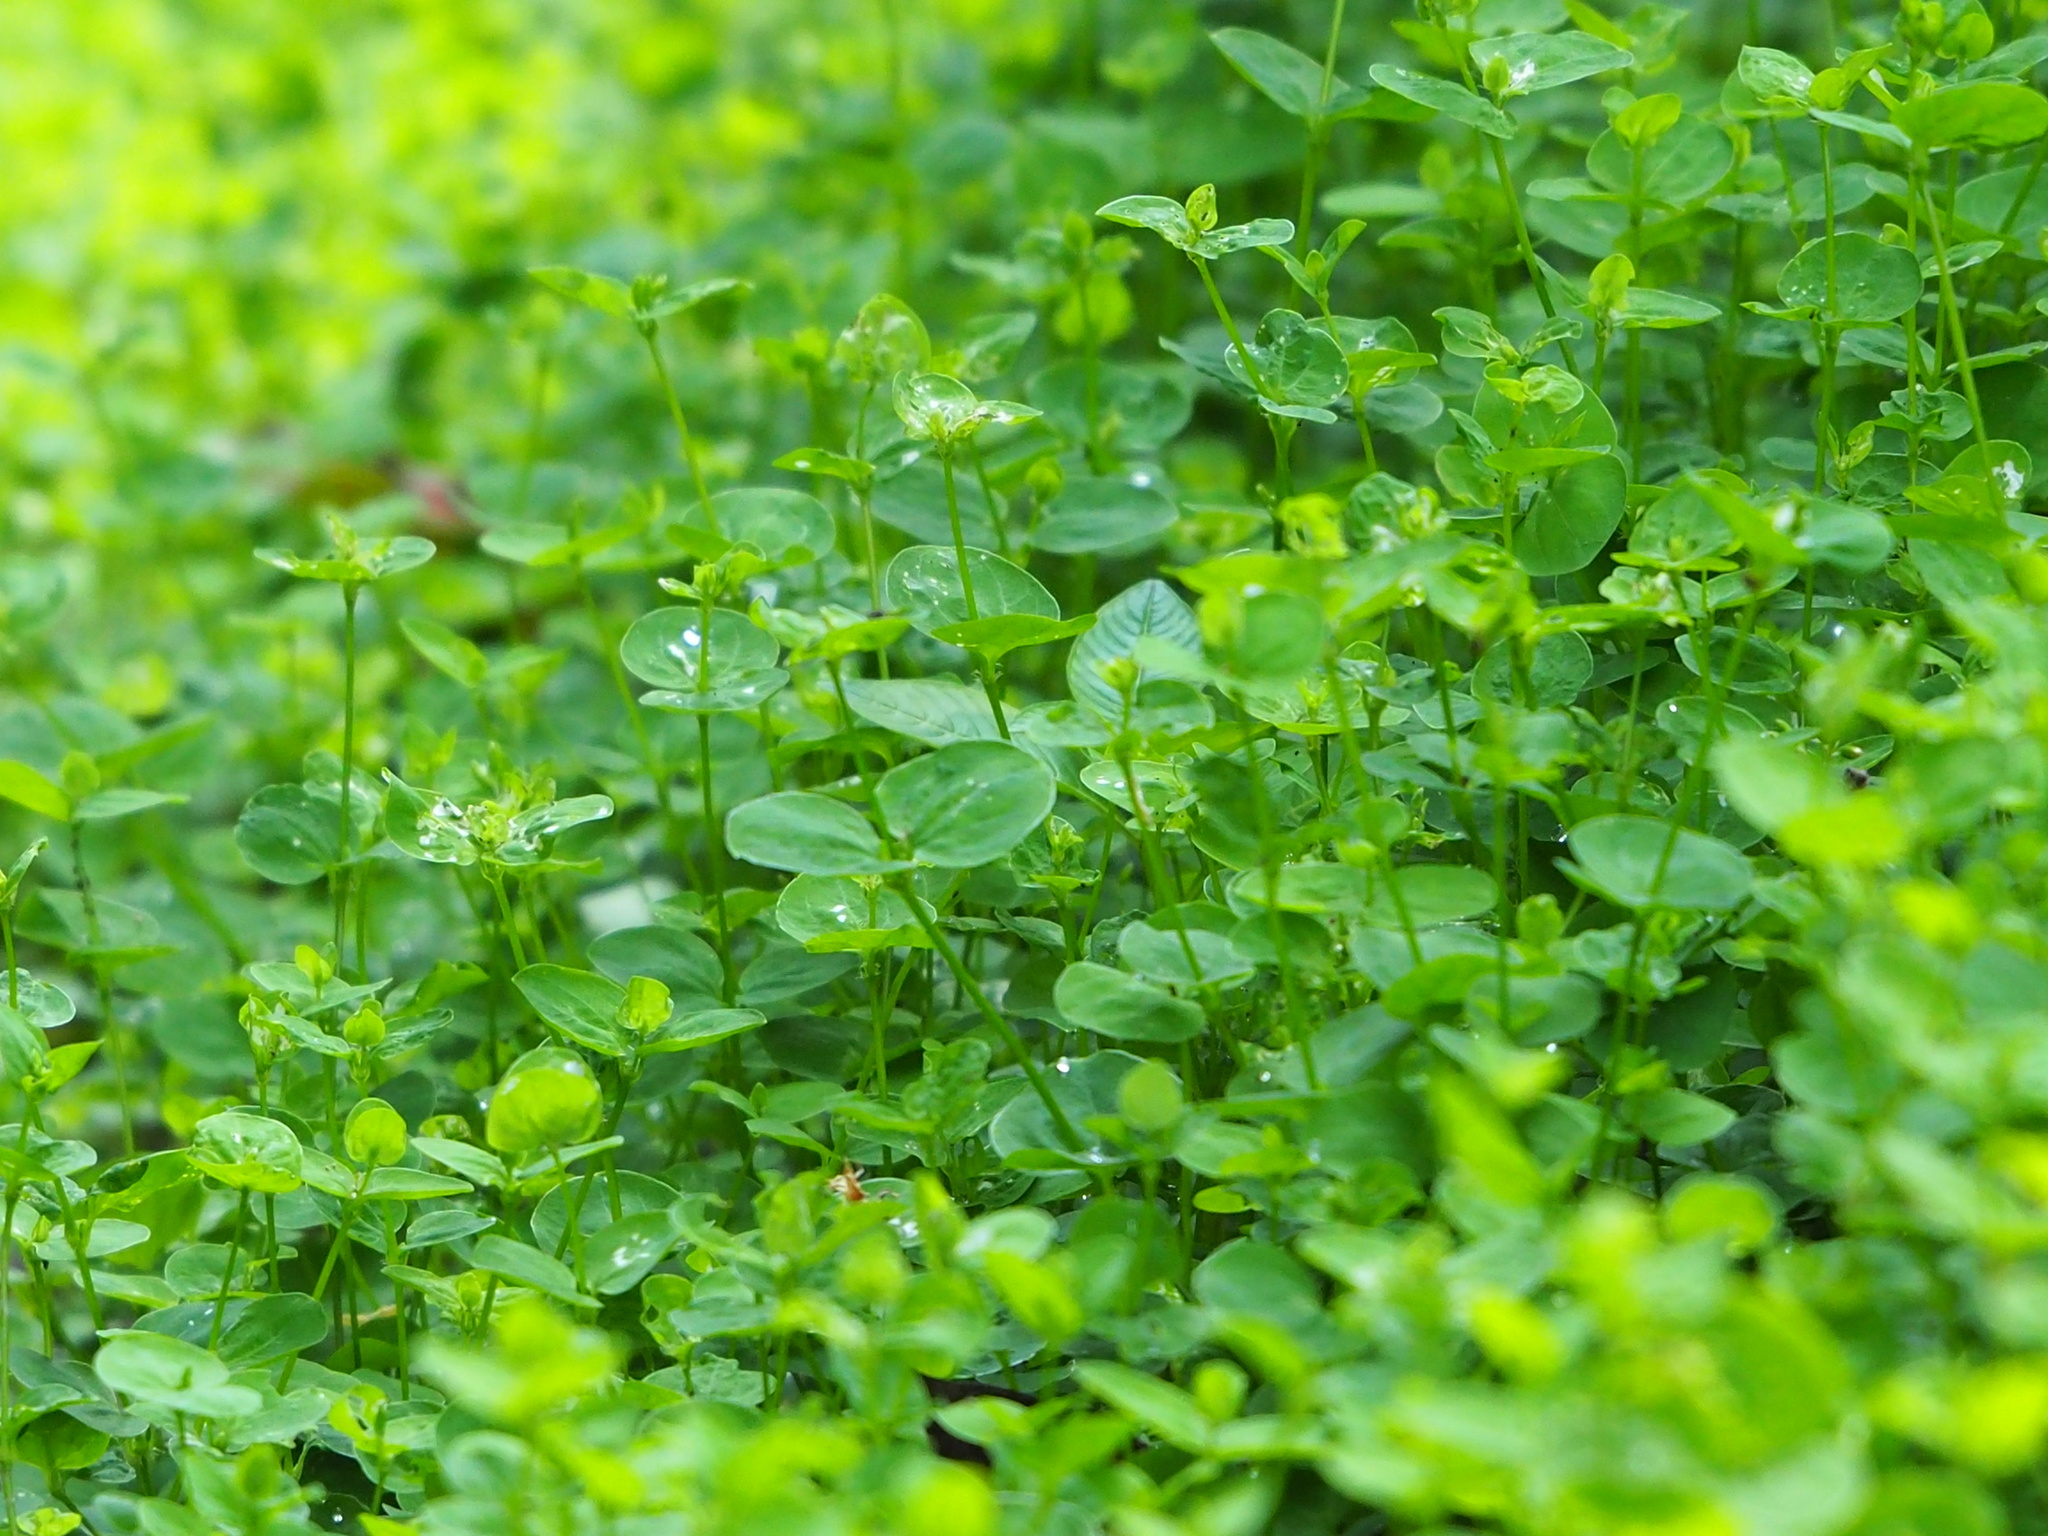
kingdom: Plantae
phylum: Tracheophyta
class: Magnoliopsida
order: Caryophyllales
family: Caryophyllaceae
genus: Drymaria
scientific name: Drymaria cordata
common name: Whitesnow
